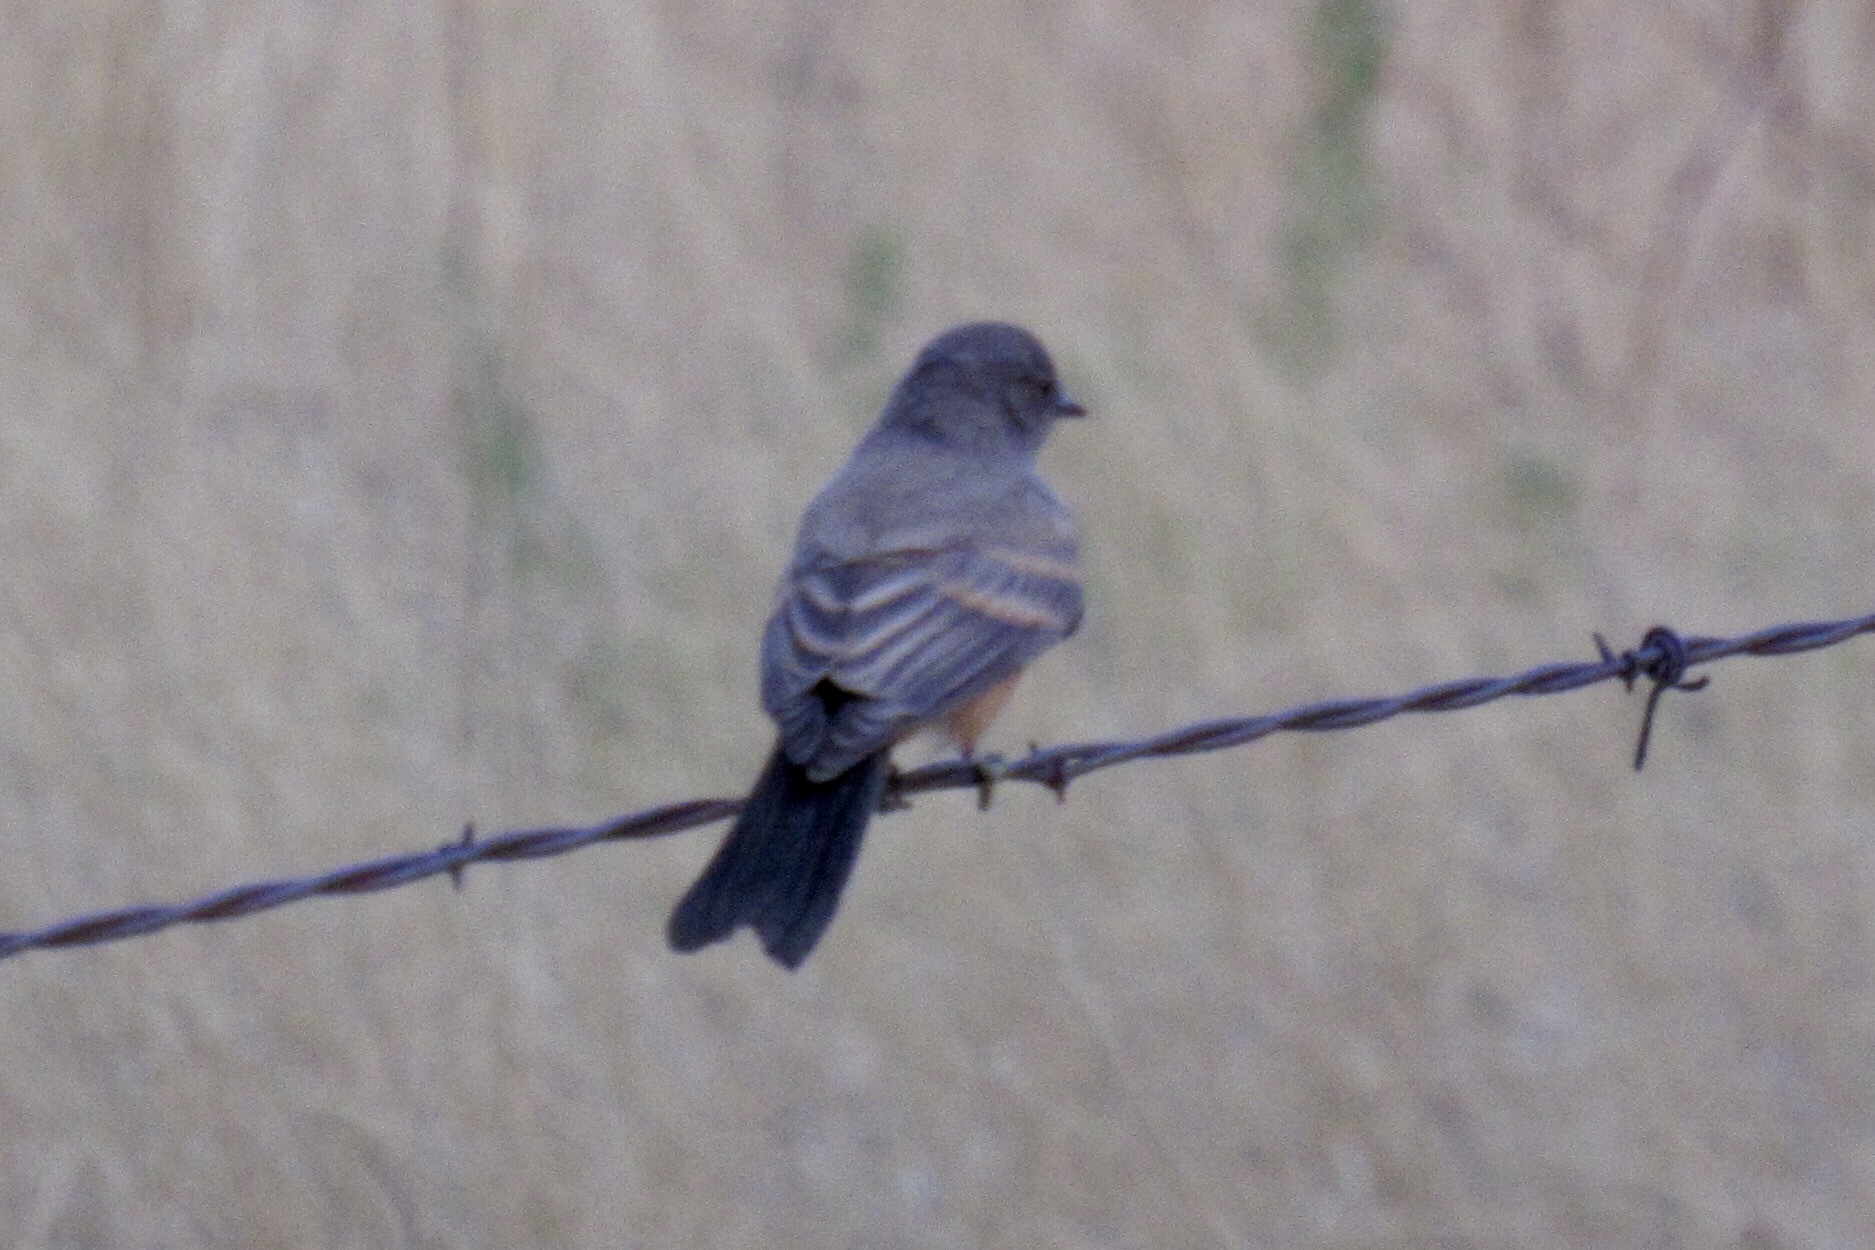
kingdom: Animalia
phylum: Chordata
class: Aves
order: Passeriformes
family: Tyrannidae
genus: Sayornis
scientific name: Sayornis saya
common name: Say's phoebe
